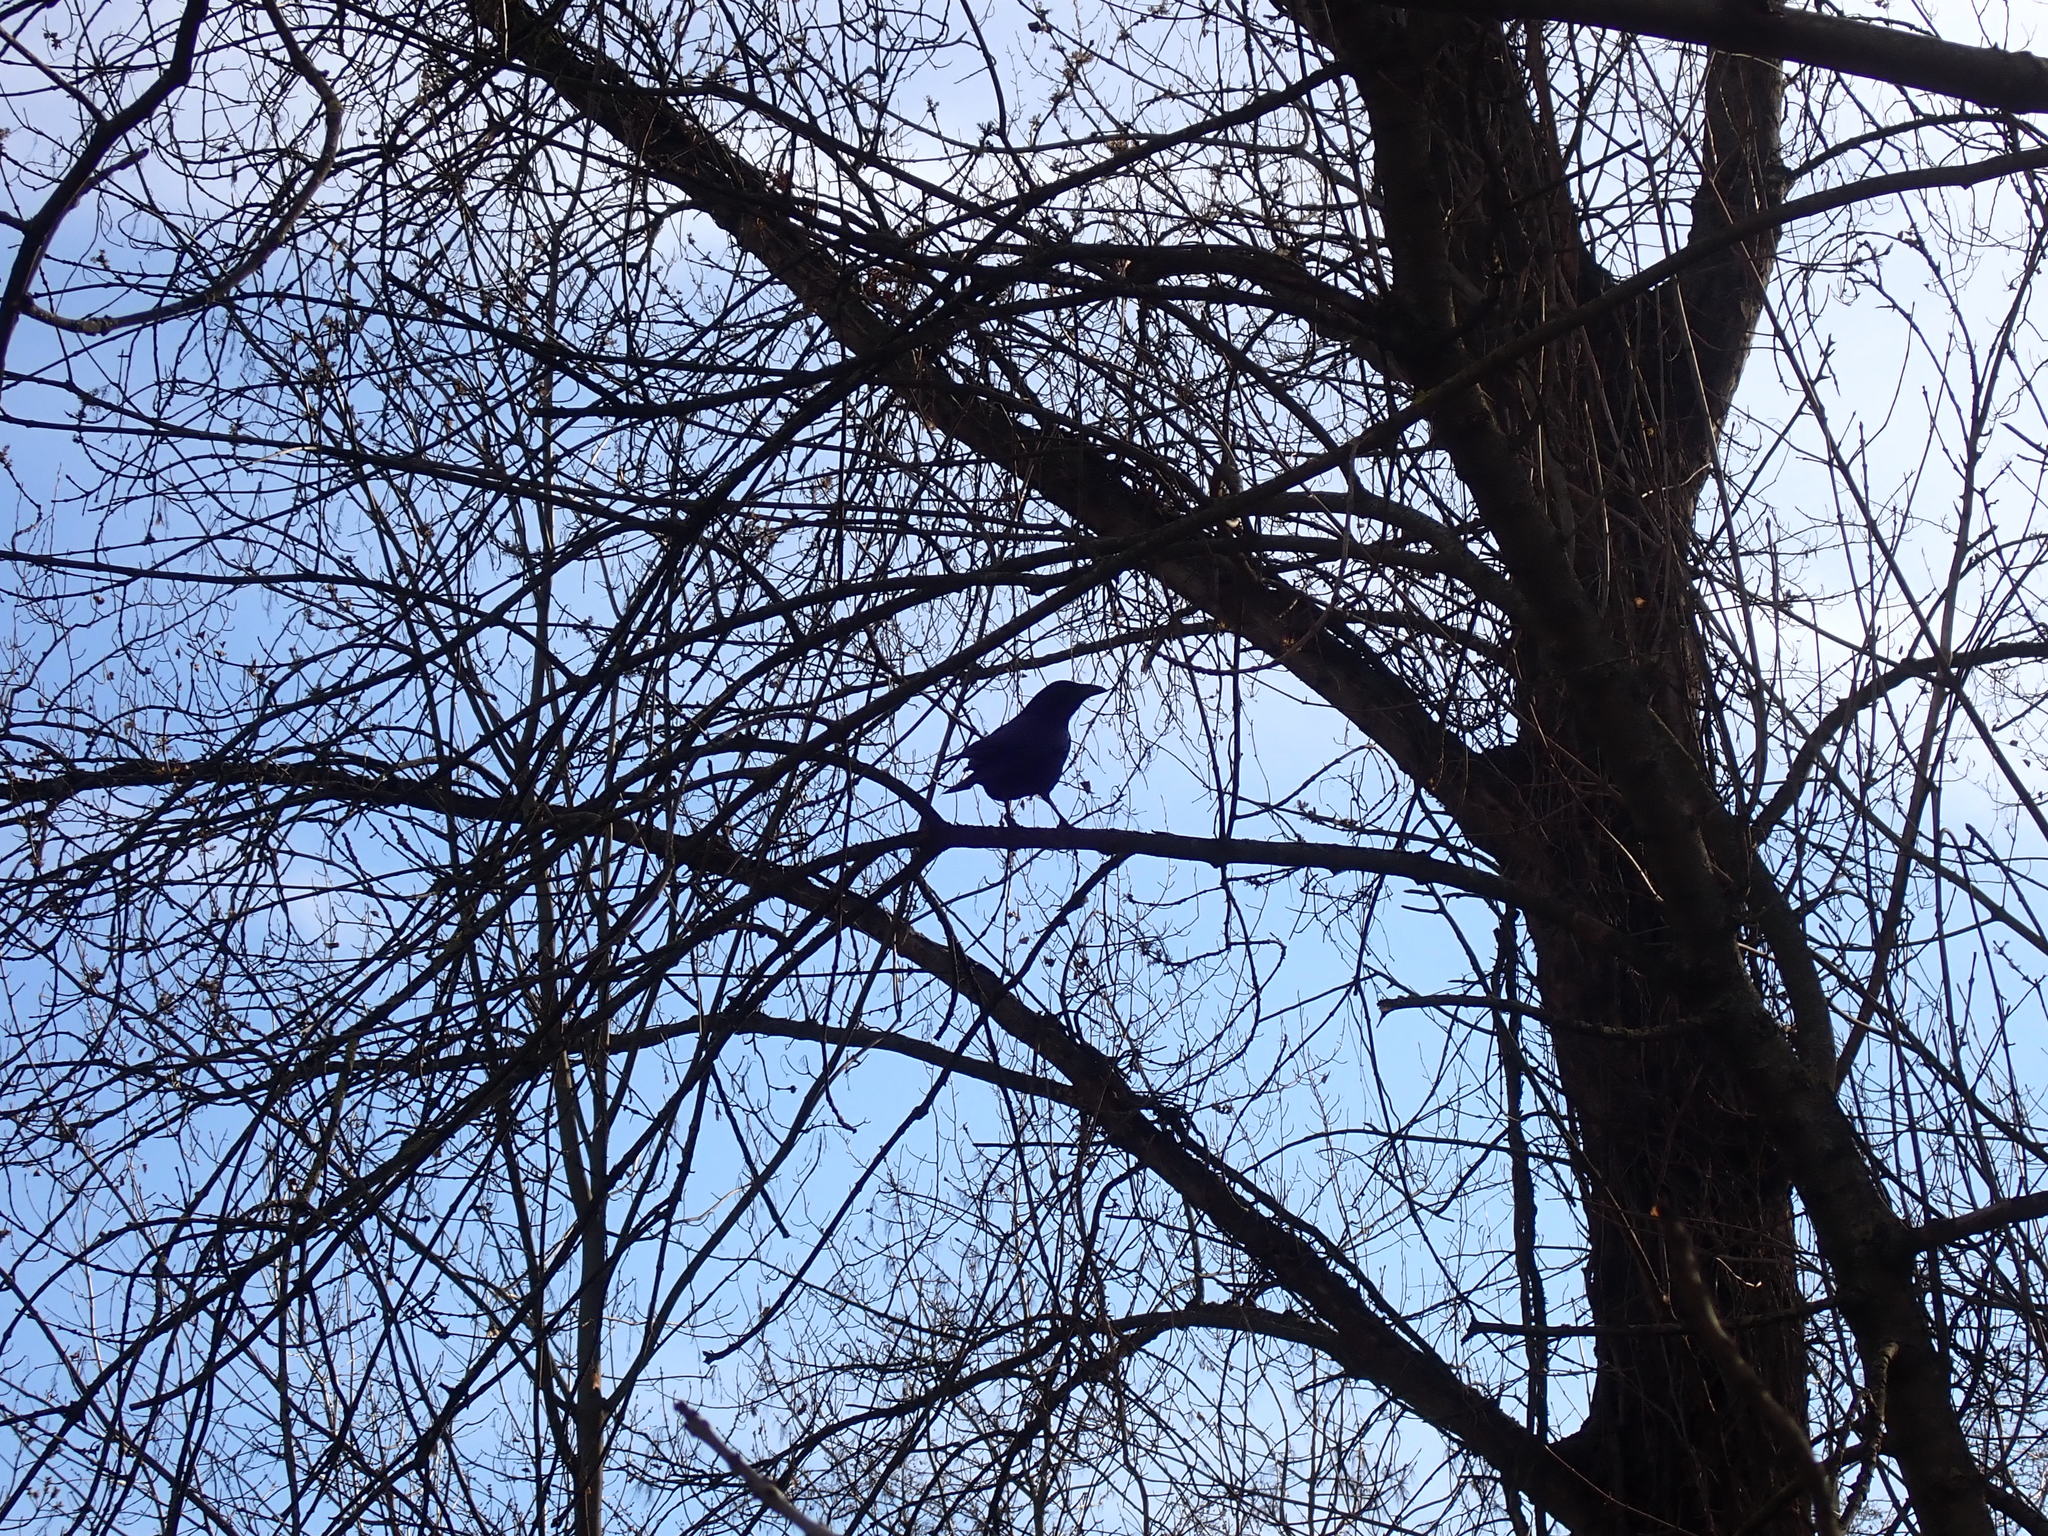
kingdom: Animalia
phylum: Chordata
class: Aves
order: Passeriformes
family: Corvidae
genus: Corvus
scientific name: Corvus corone
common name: Carrion crow
